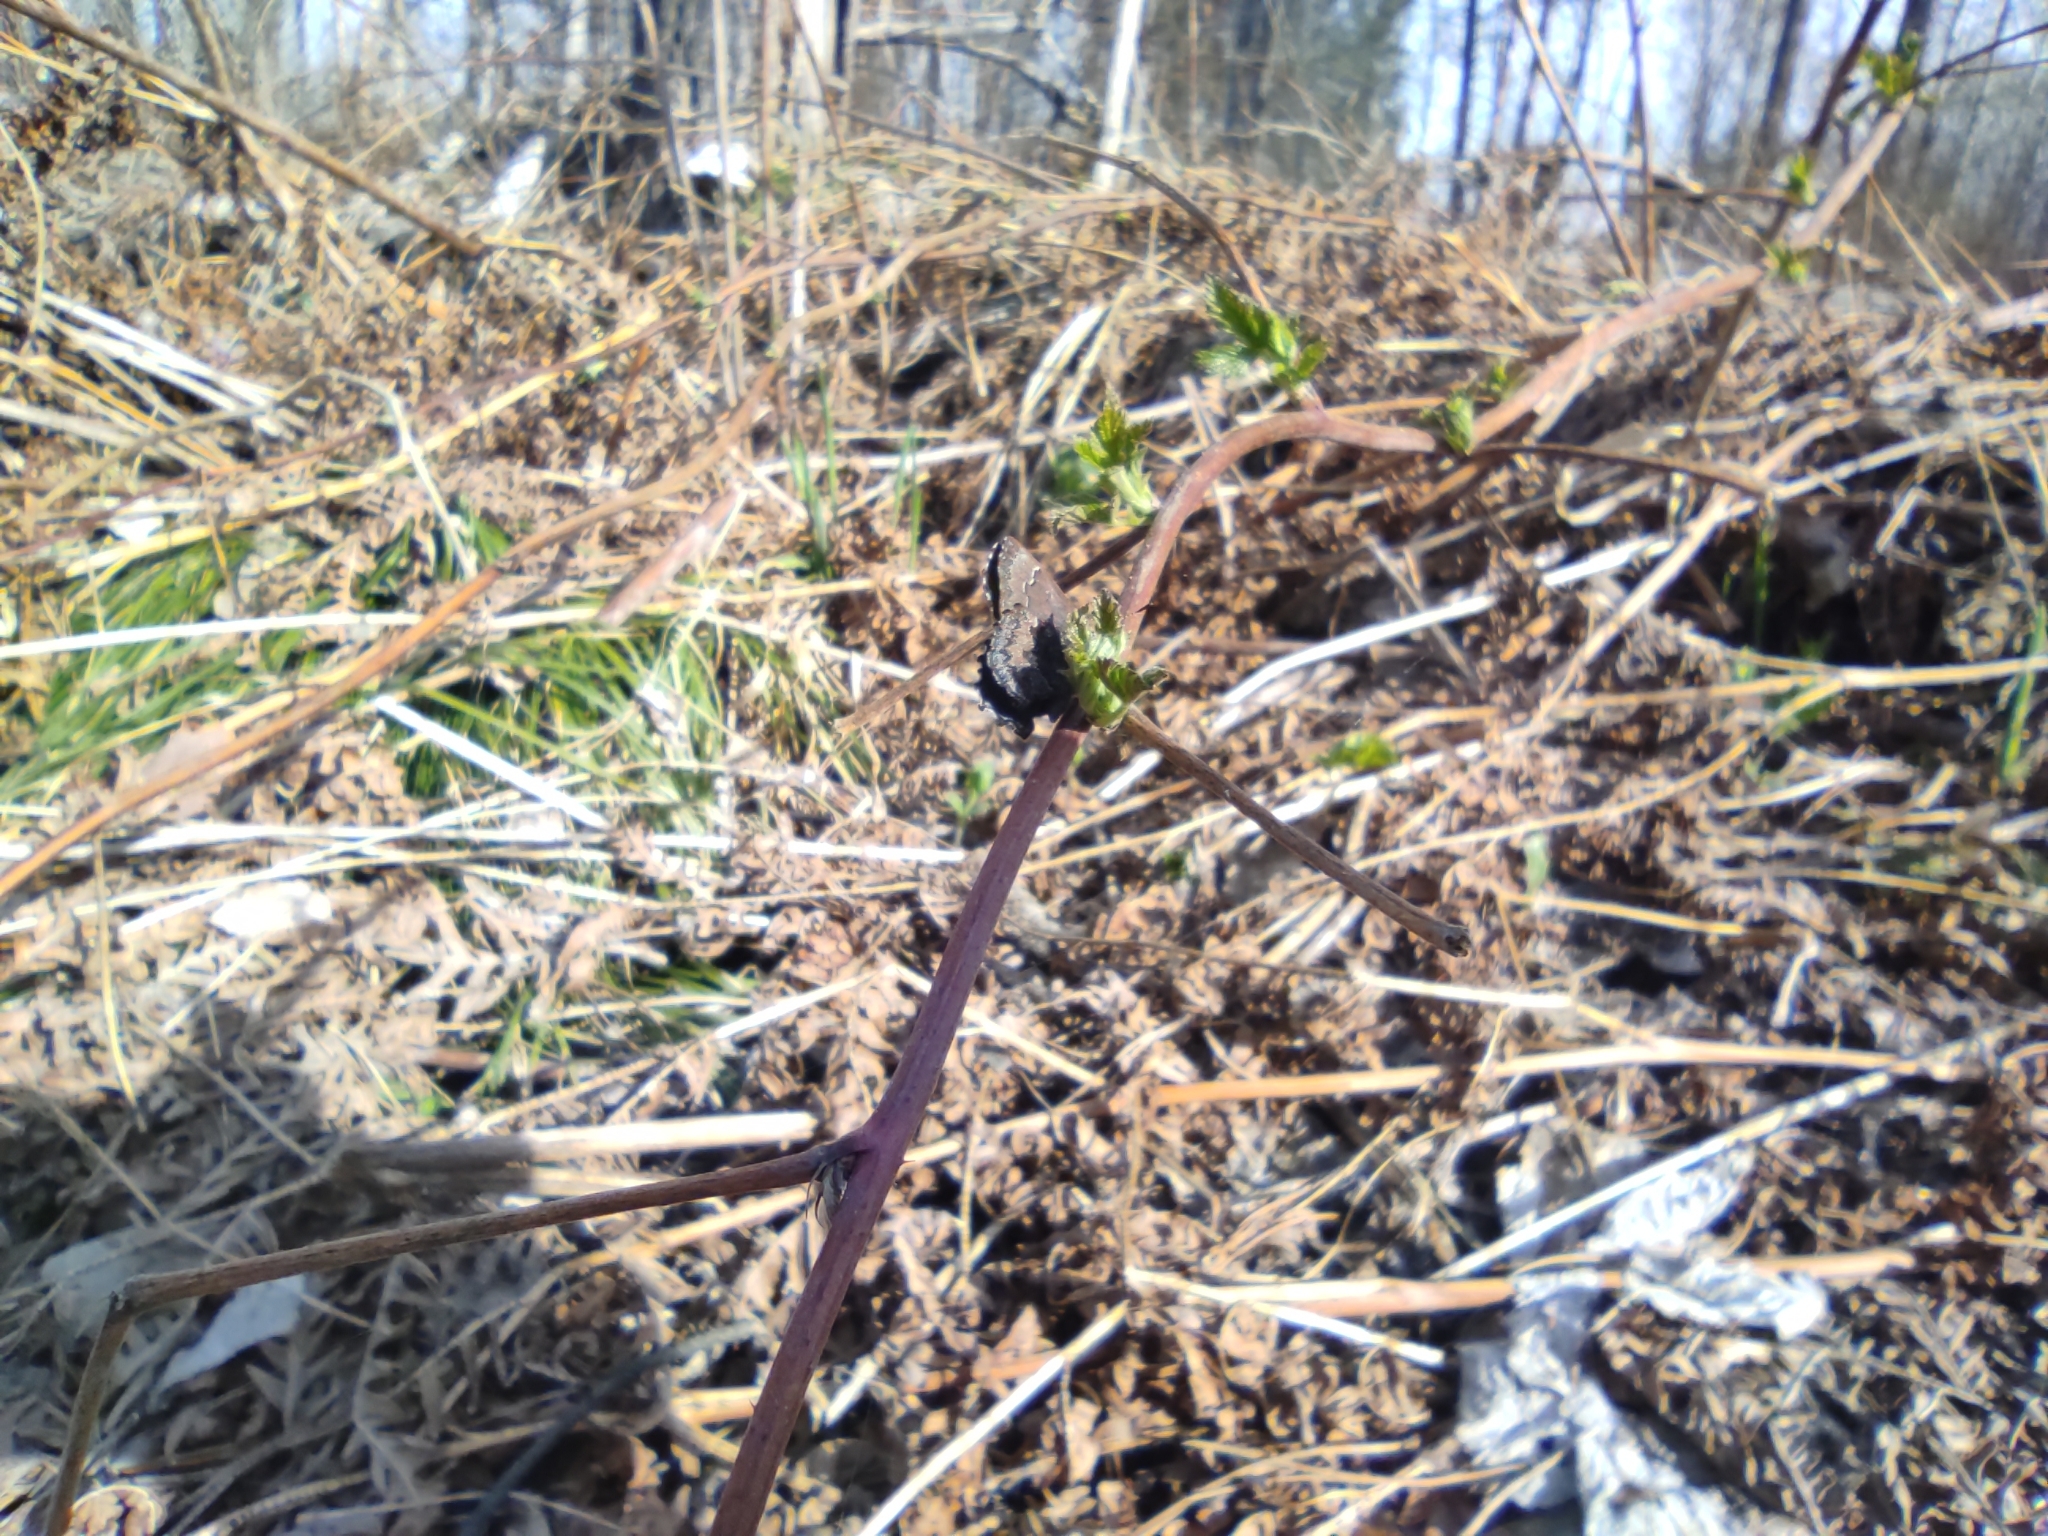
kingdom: Animalia
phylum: Arthropoda
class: Insecta
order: Lepidoptera
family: Lycaenidae
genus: Ginzia
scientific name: Ginzia Ahlbergia frivaldszkyi
